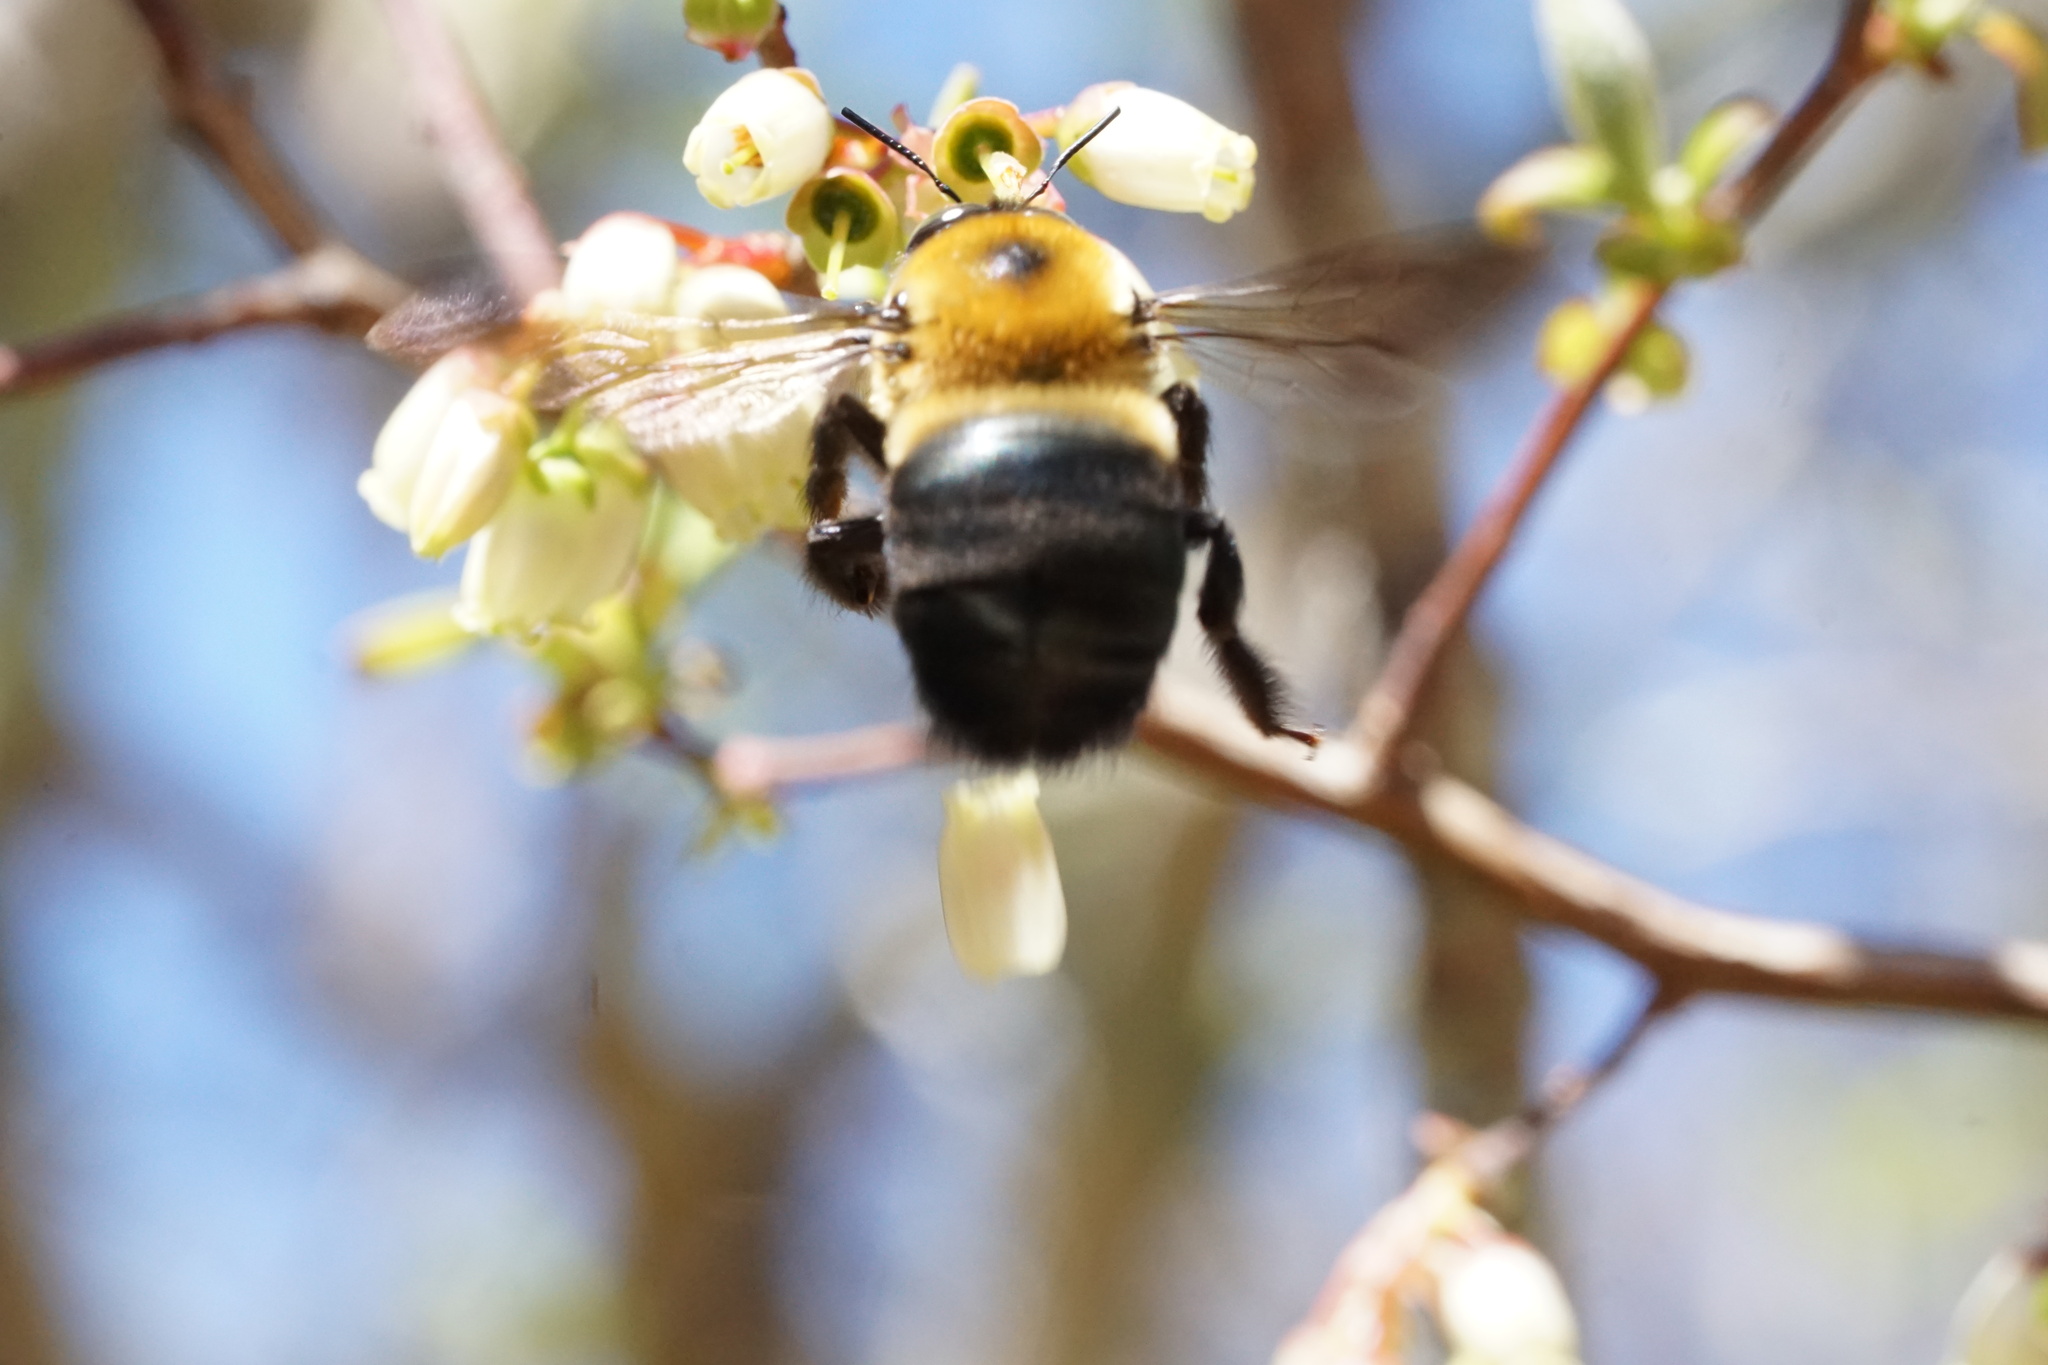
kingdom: Animalia
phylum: Arthropoda
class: Insecta
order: Hymenoptera
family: Apidae
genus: Xylocopa
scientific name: Xylocopa virginica
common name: Carpenter bee
